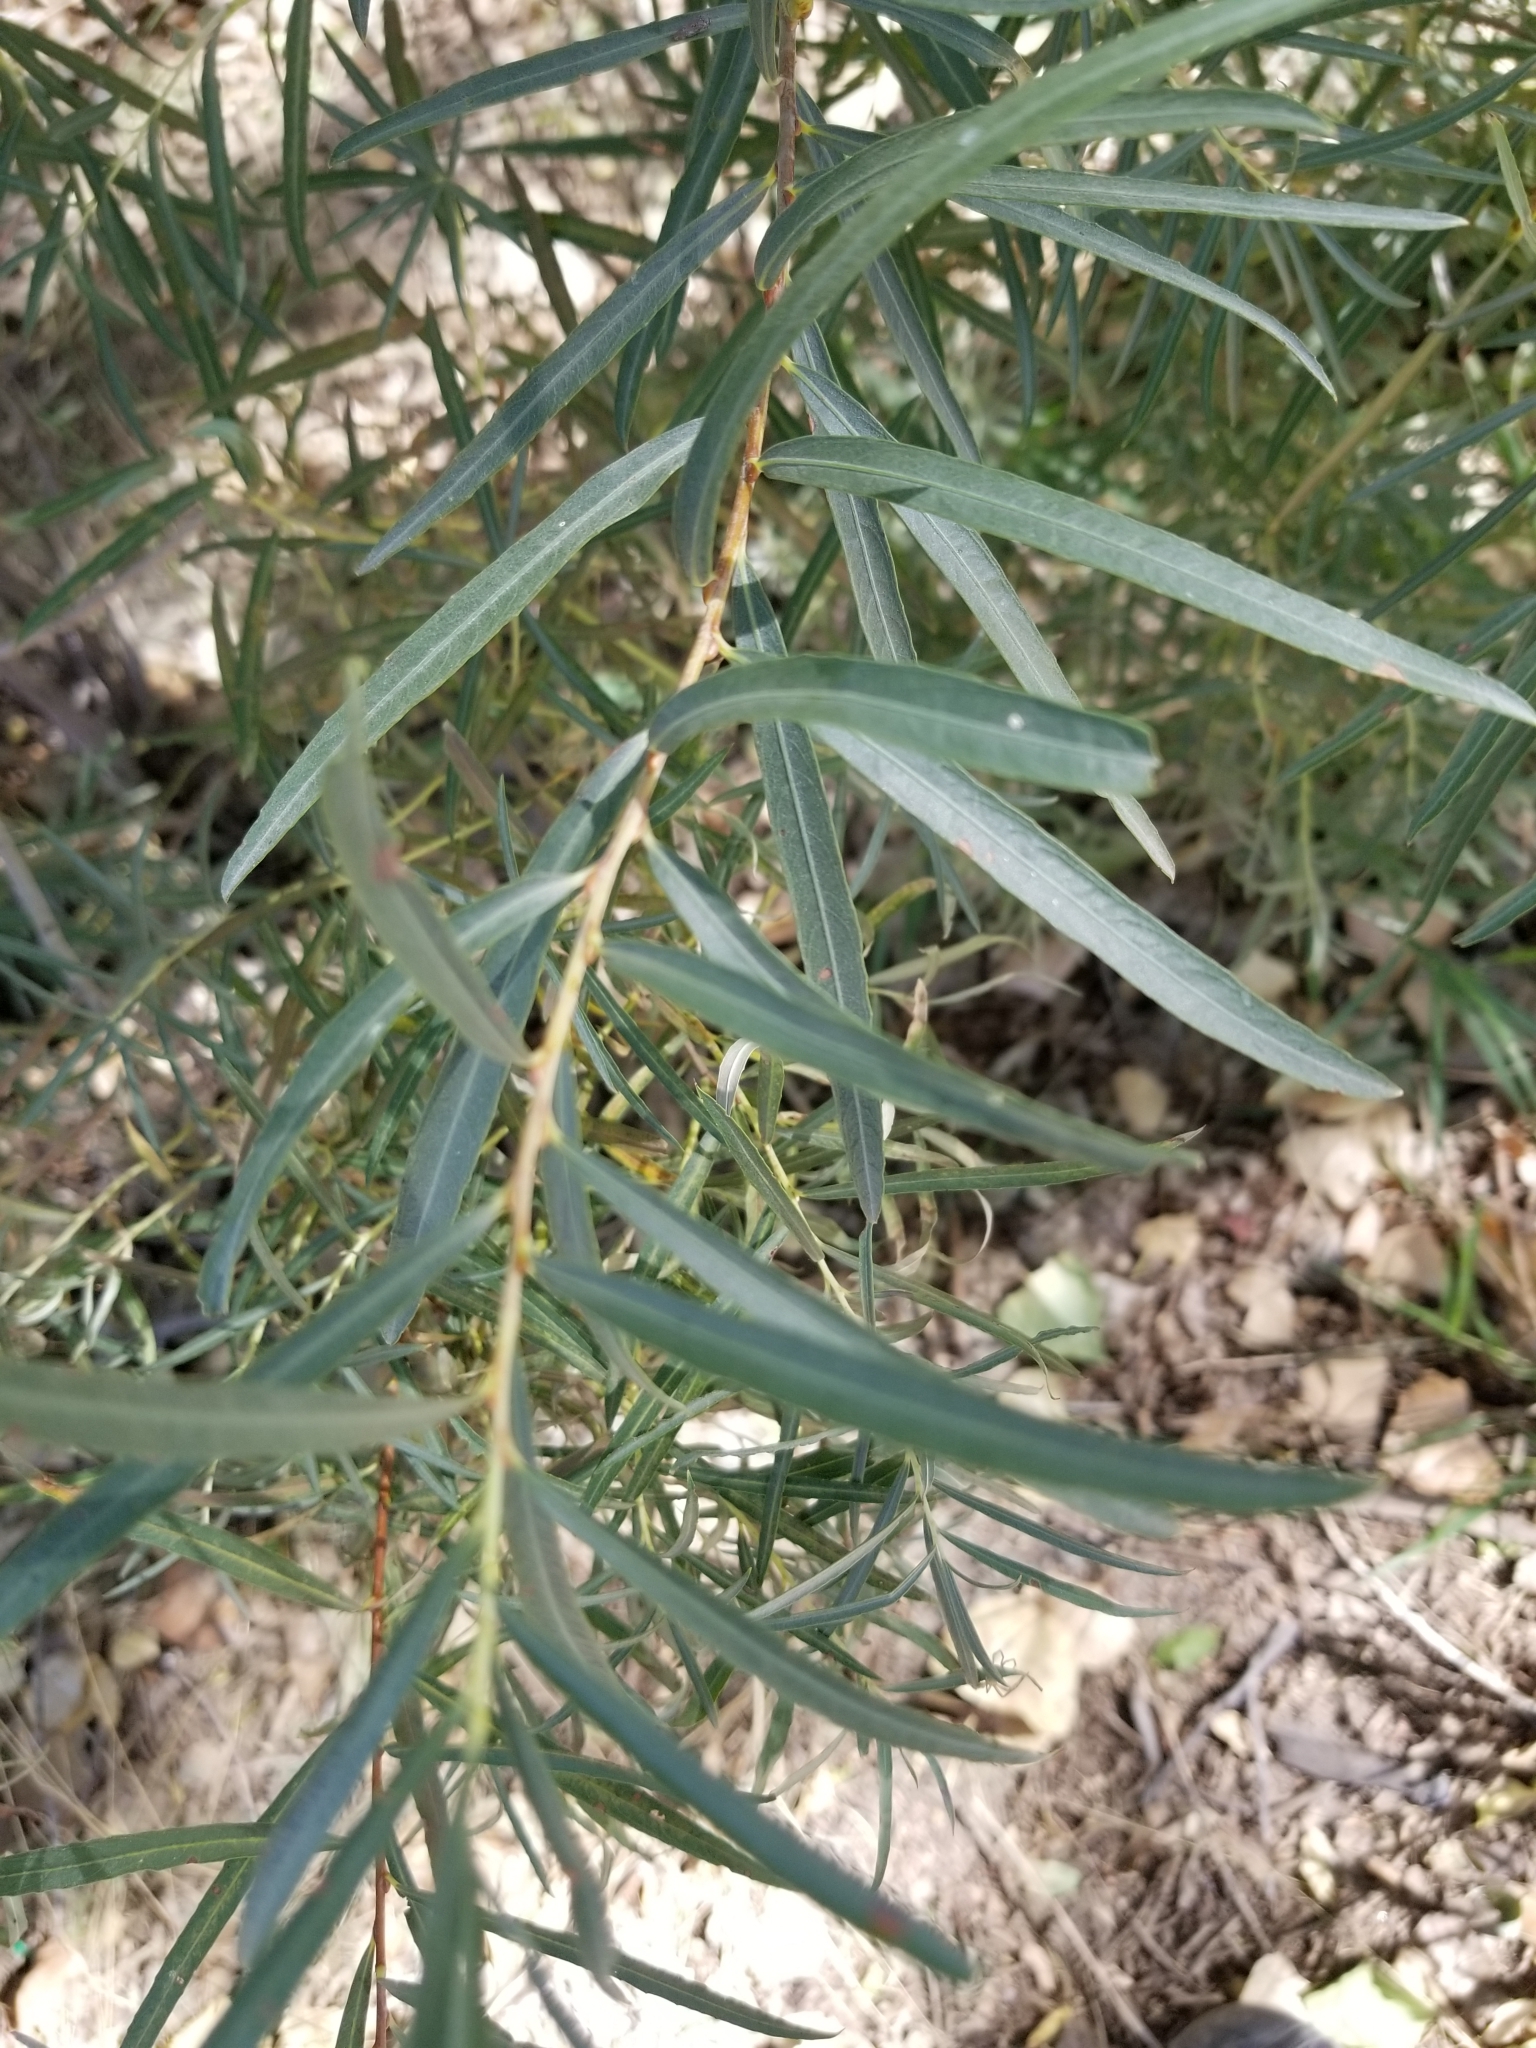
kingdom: Plantae
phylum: Tracheophyta
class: Magnoliopsida
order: Malpighiales
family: Salicaceae
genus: Salix
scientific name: Salix exigua
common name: Coyote willow
